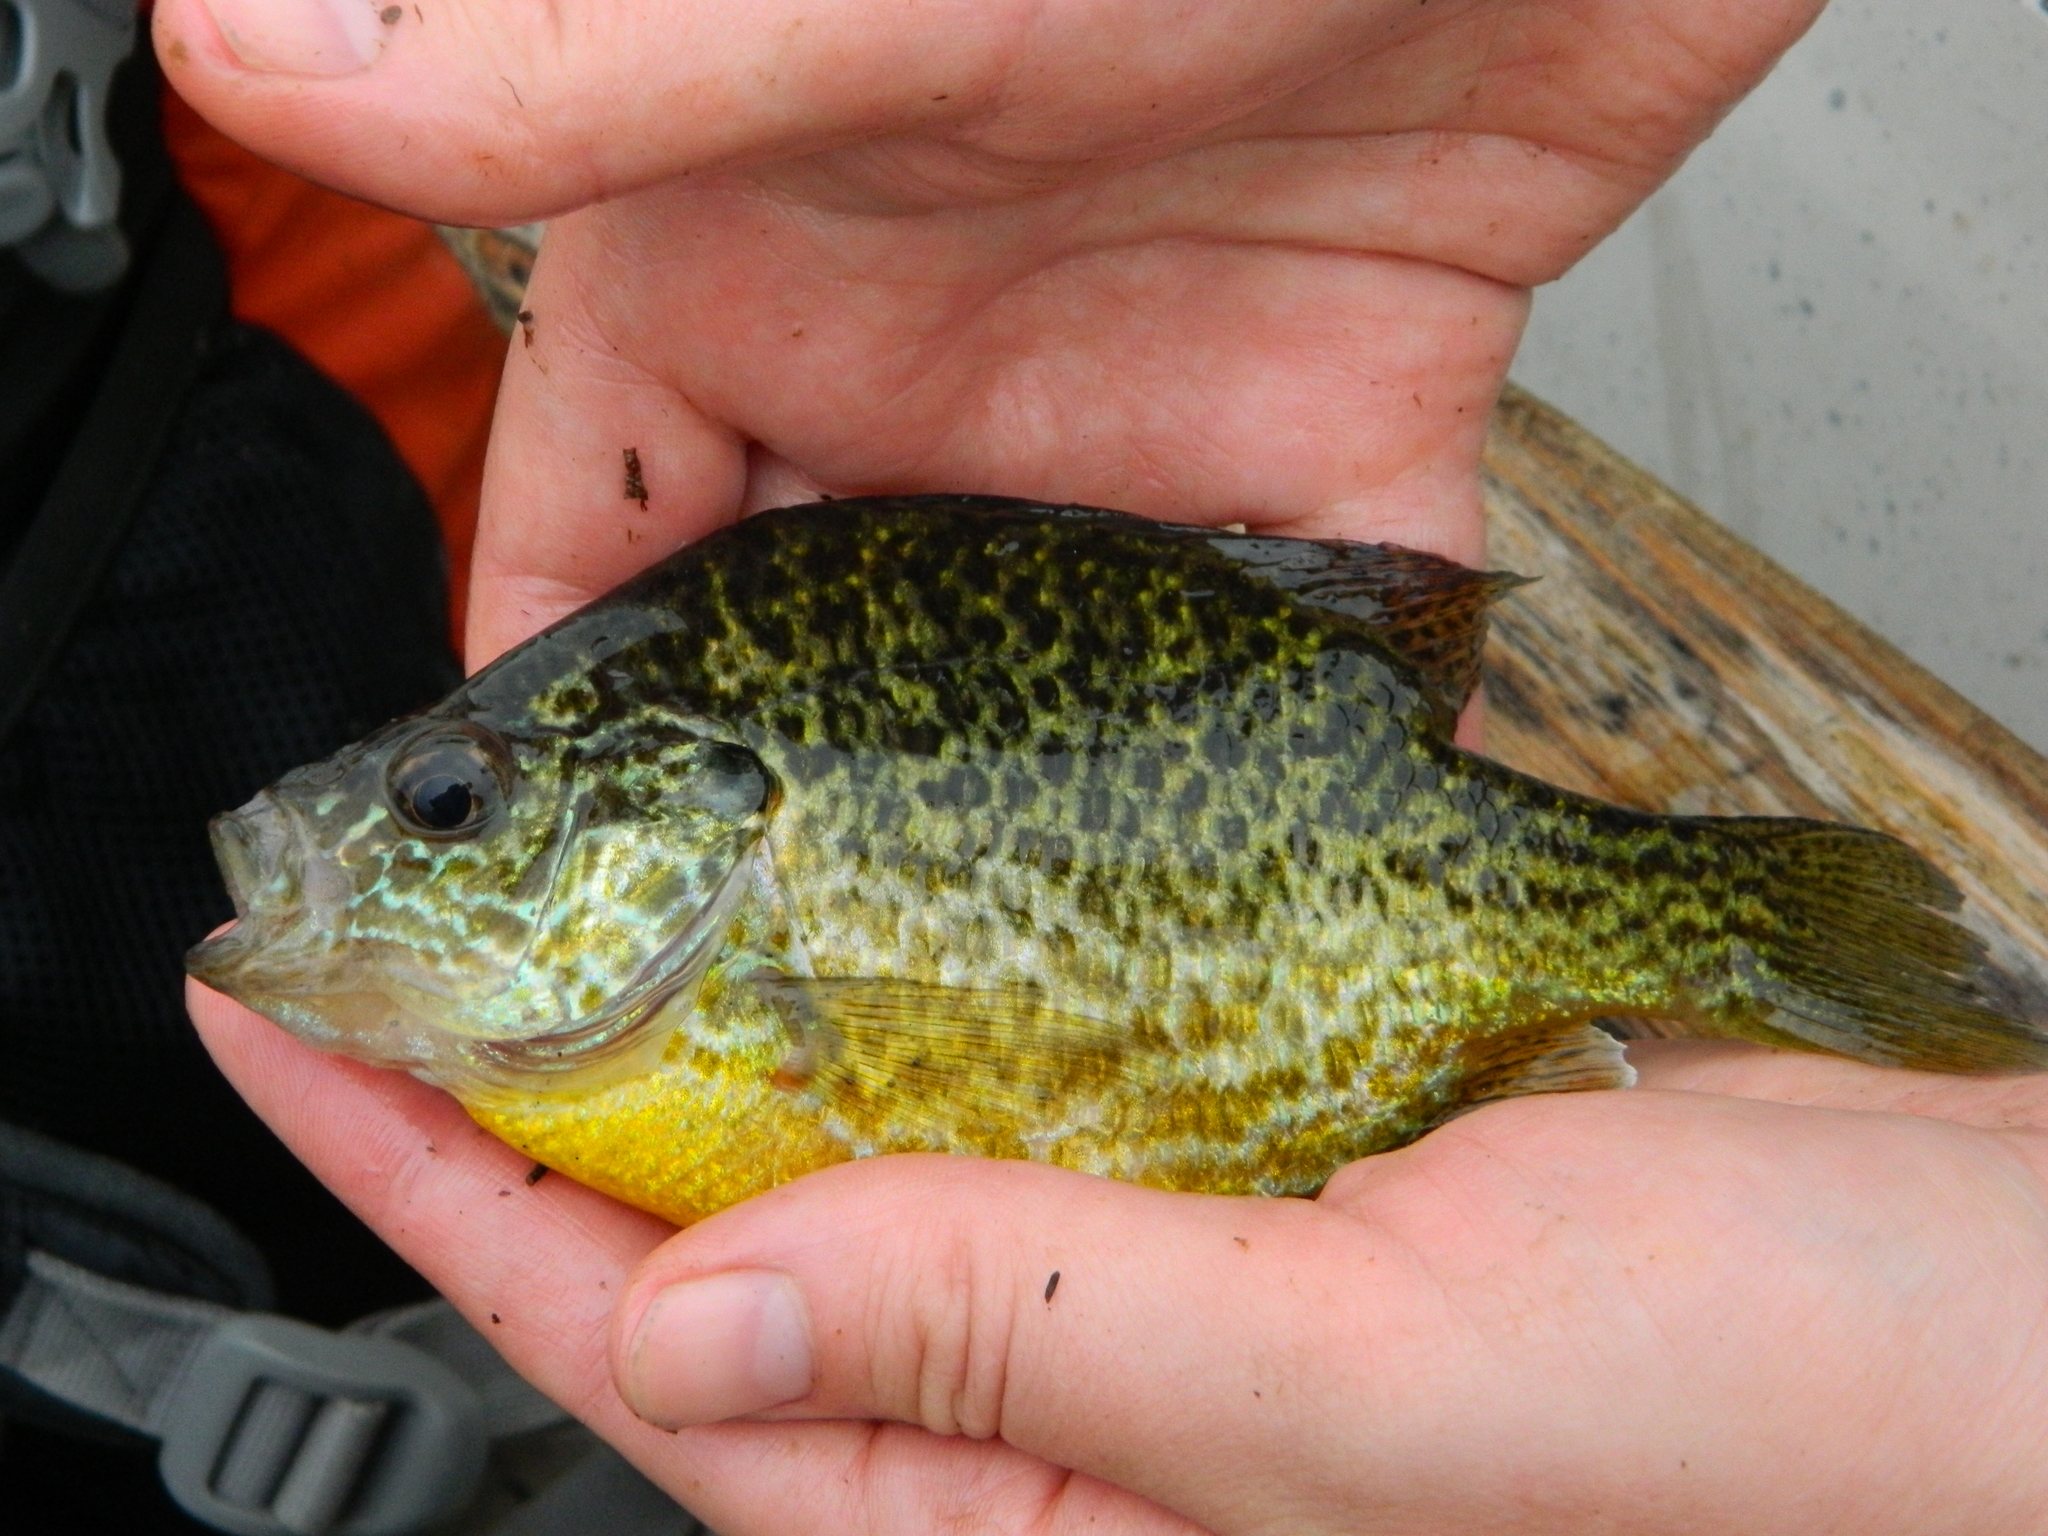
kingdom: Animalia
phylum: Chordata
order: Perciformes
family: Centrarchidae
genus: Lepomis
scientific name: Lepomis gibbosus
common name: Pumpkinseed
